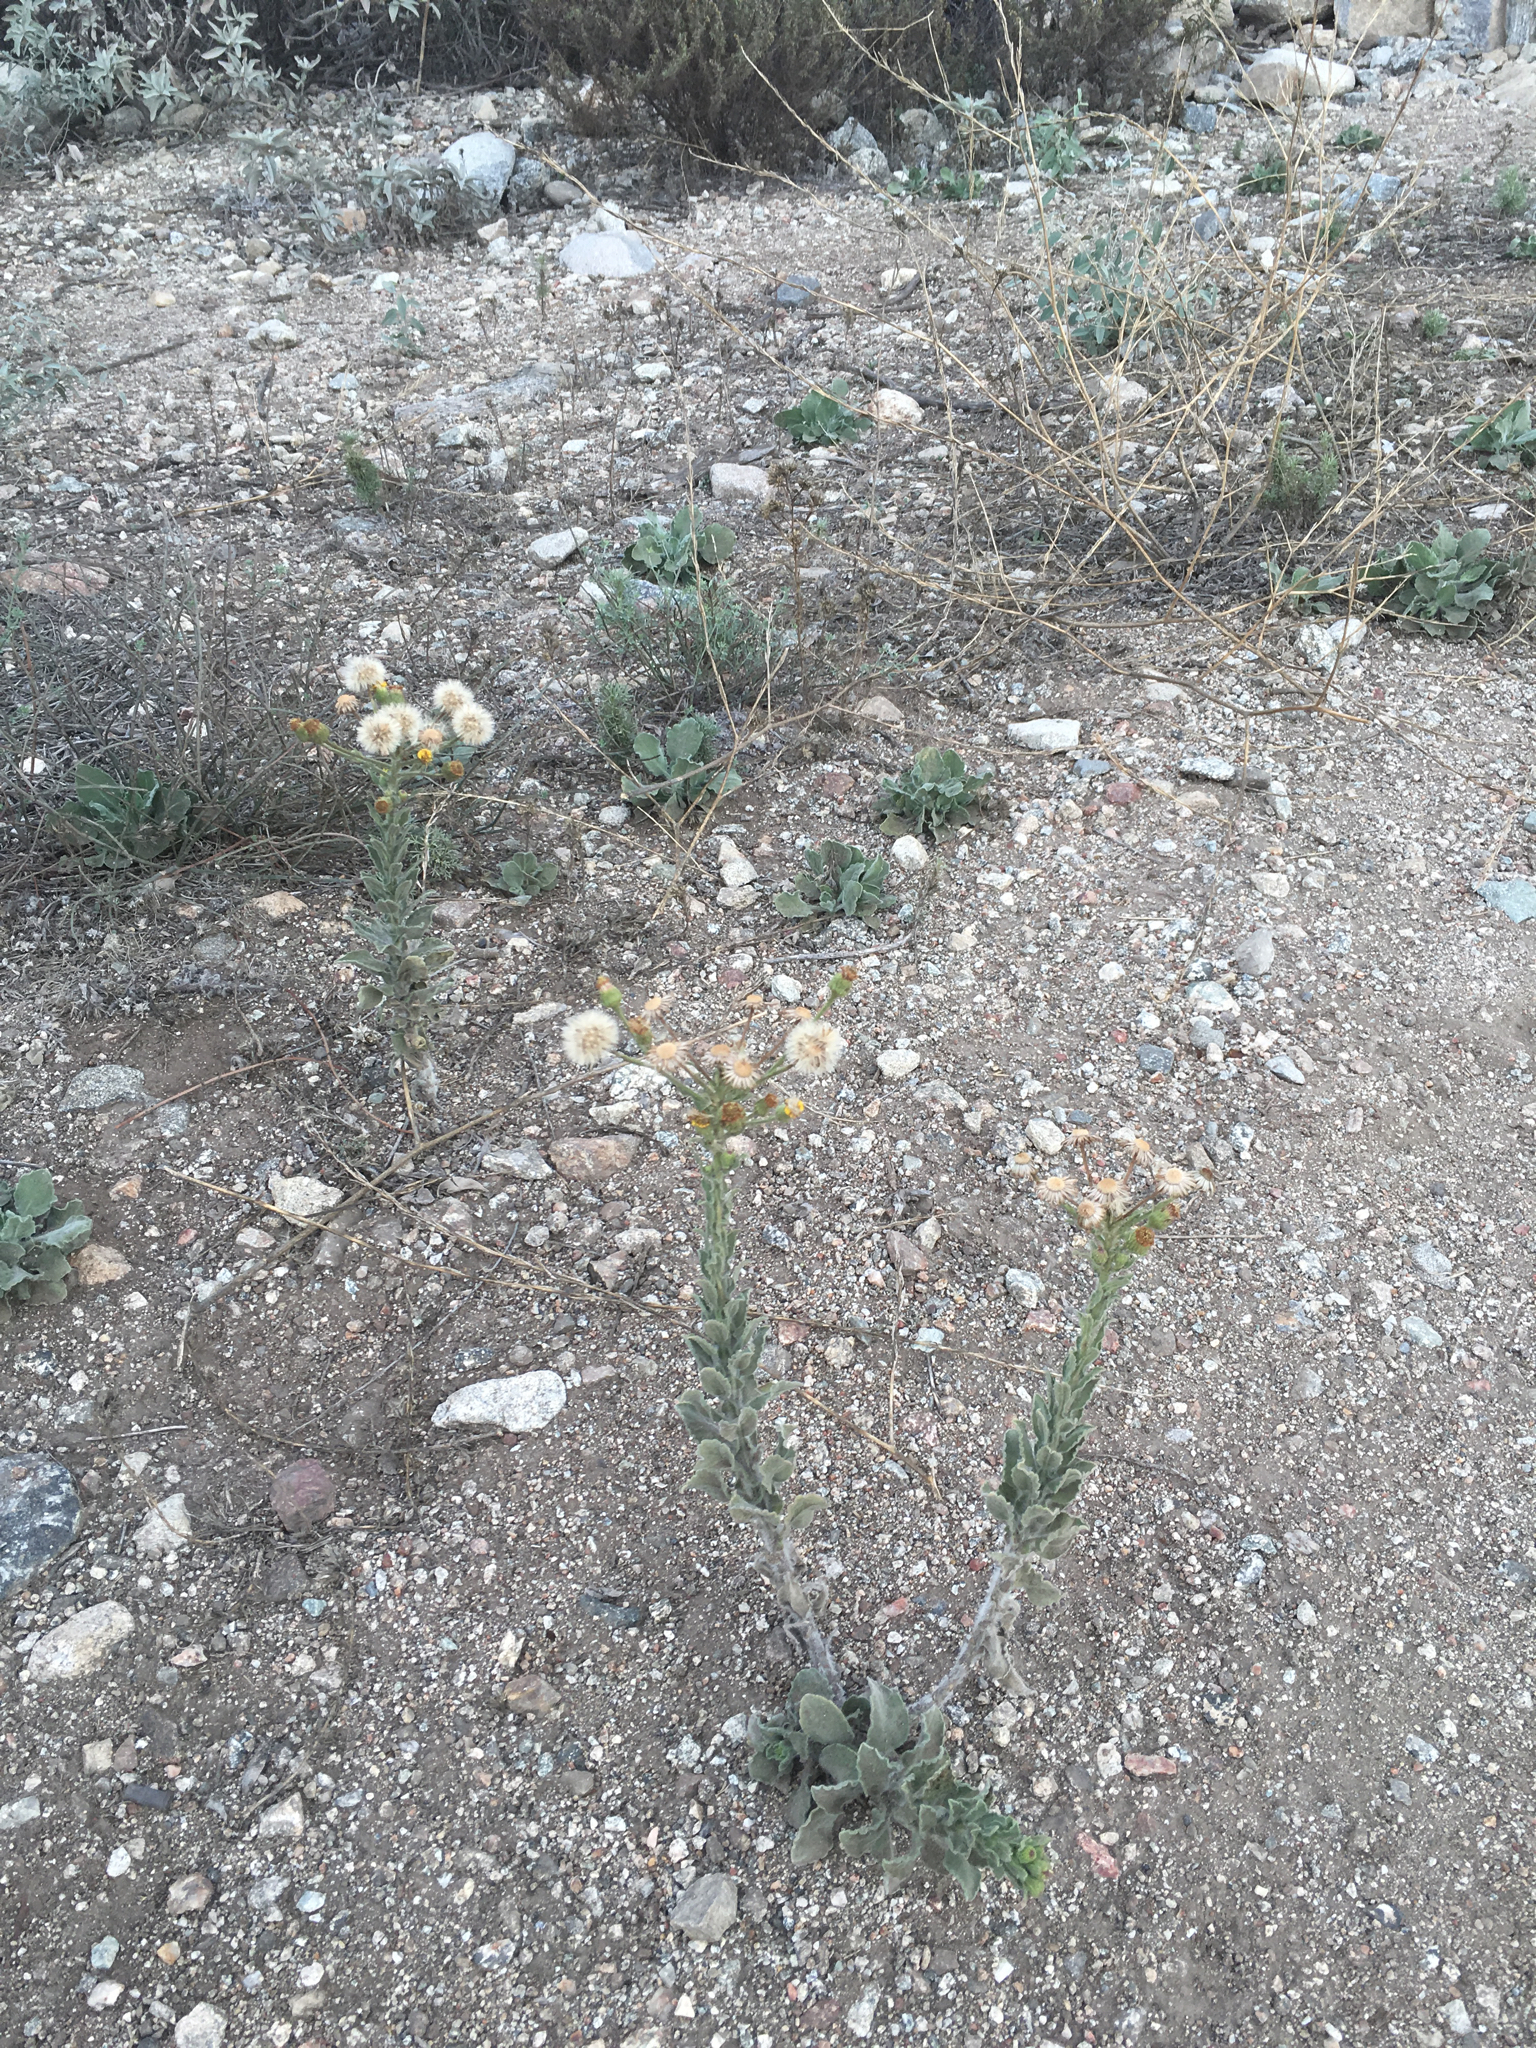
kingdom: Plantae
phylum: Tracheophyta
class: Magnoliopsida
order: Asterales
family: Asteraceae
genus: Heterotheca
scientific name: Heterotheca grandiflora
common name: Telegraphweed
